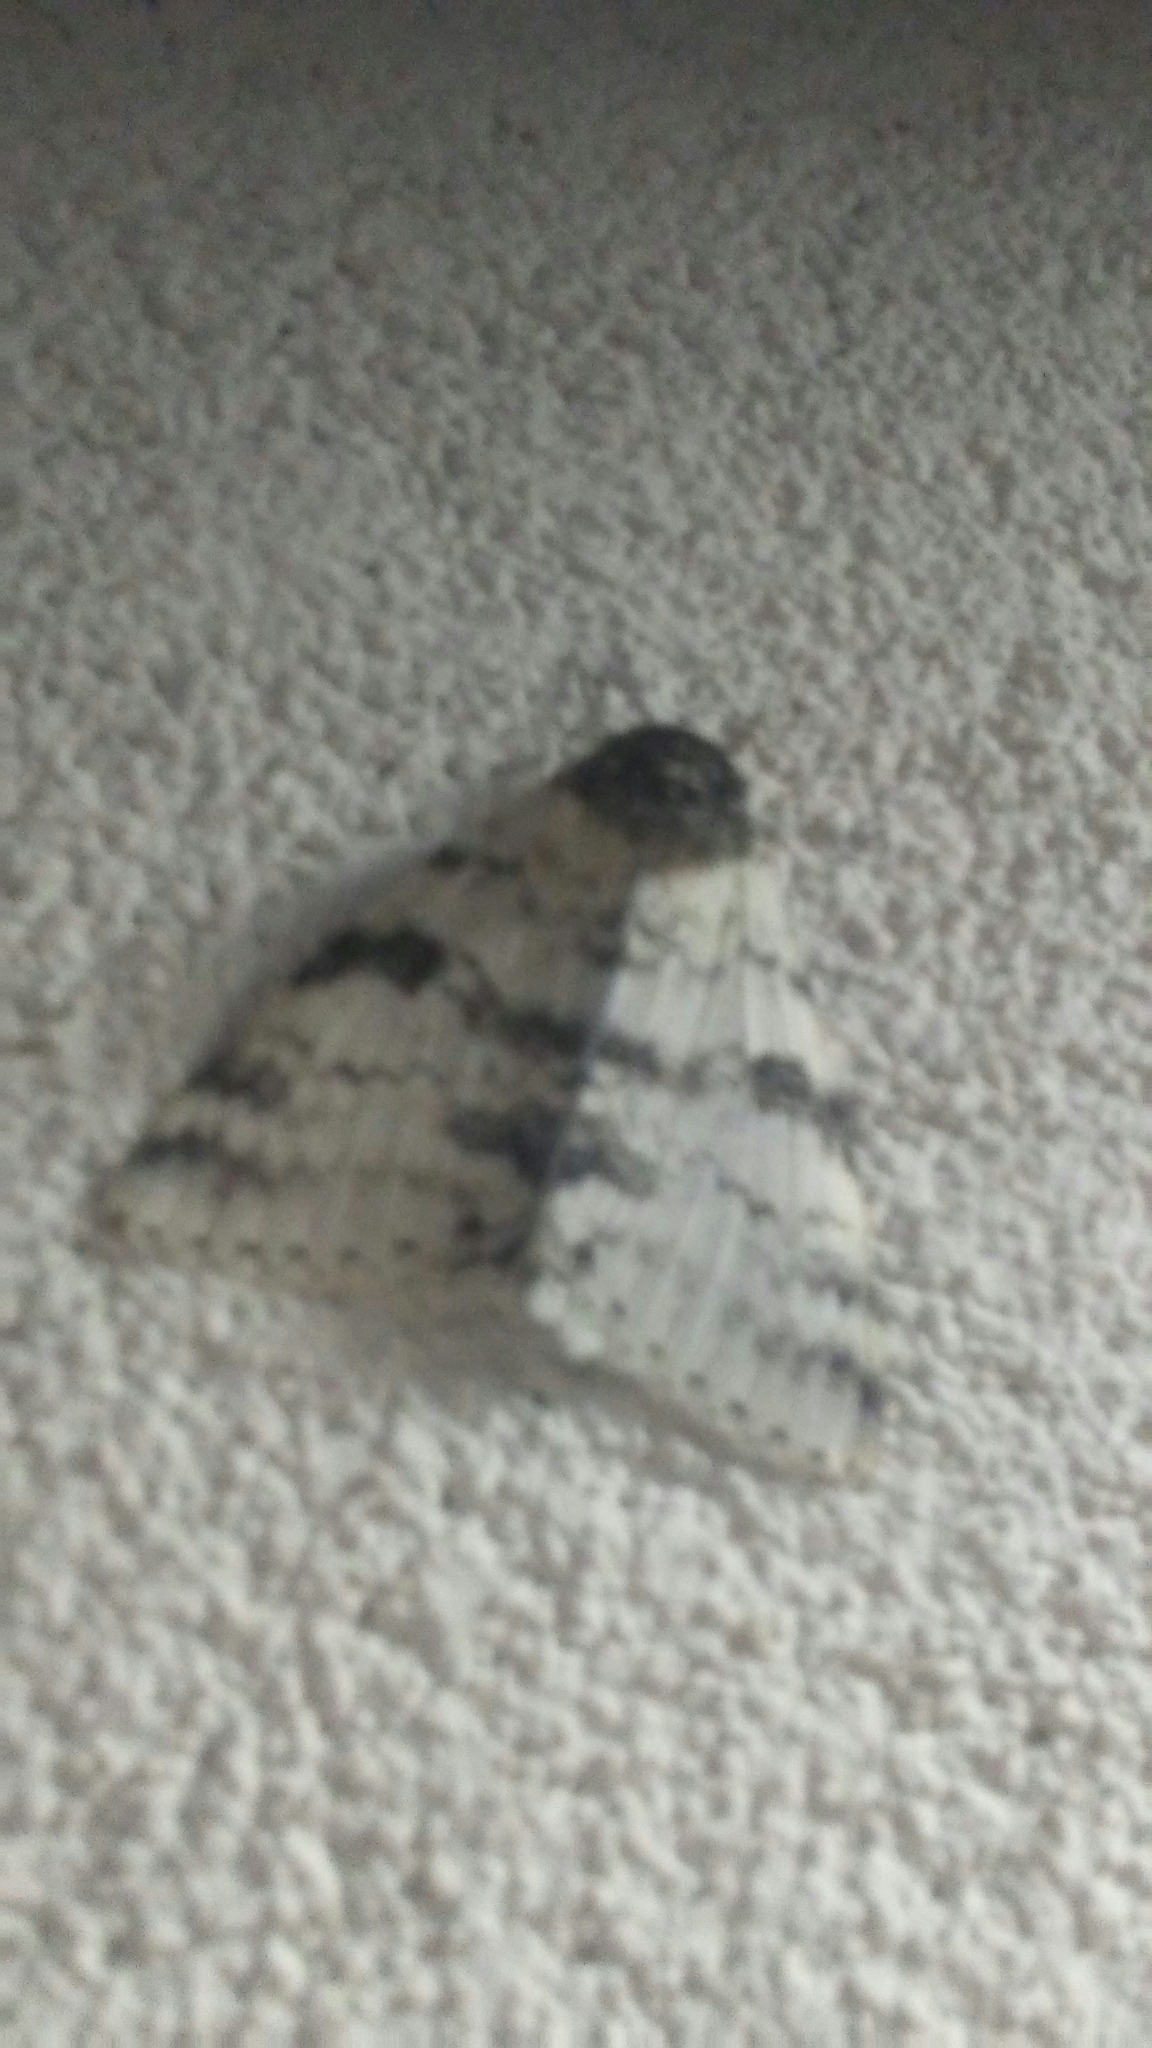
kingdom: Animalia
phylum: Arthropoda
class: Insecta
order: Lepidoptera
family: Erebidae
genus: Catocala
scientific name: Catocala relicta
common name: White underwing
